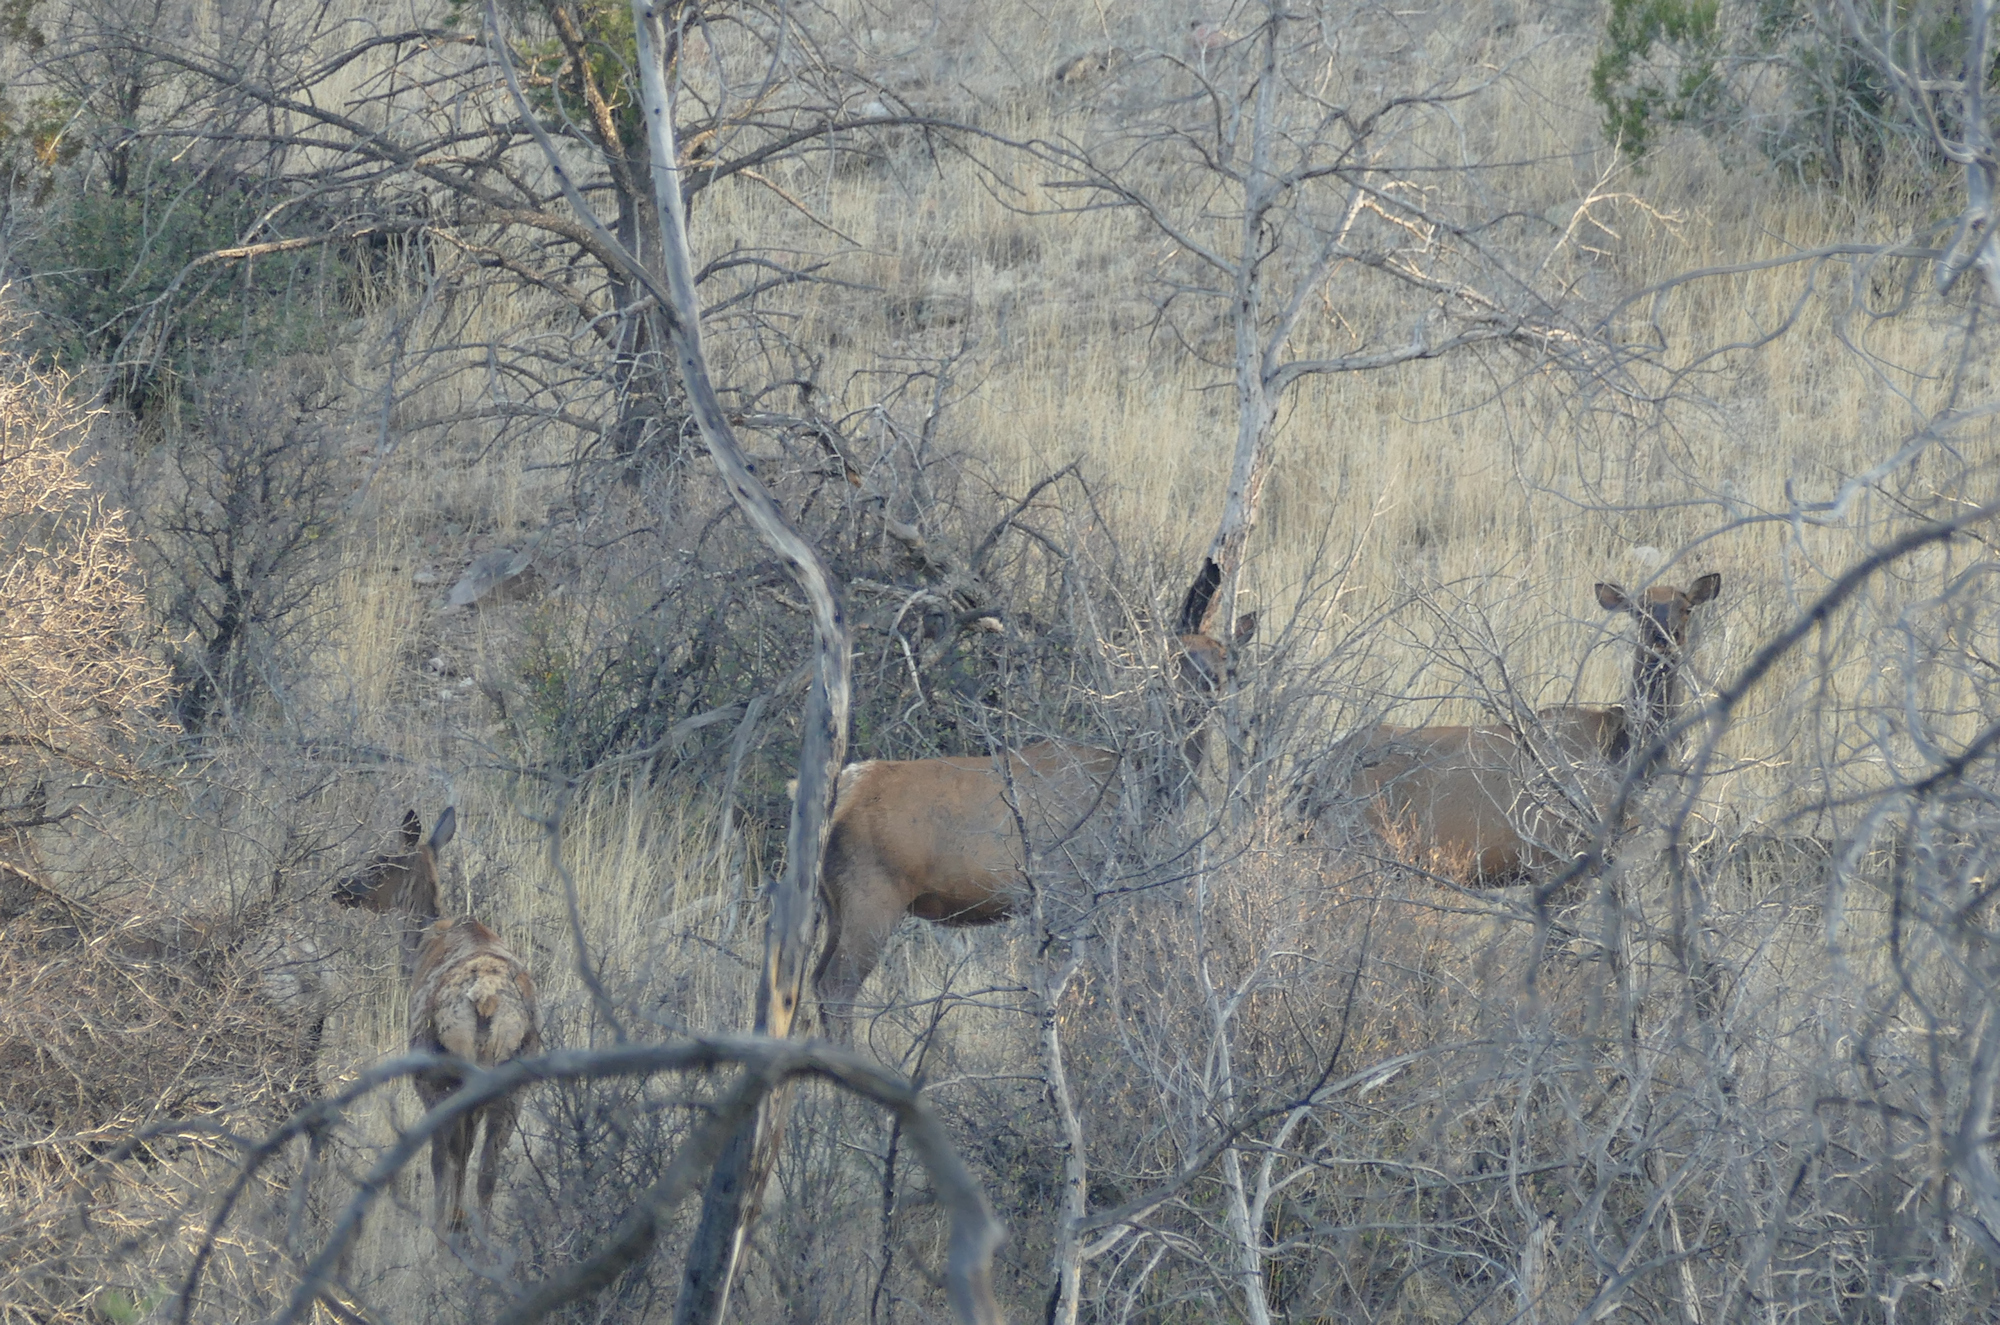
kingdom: Animalia
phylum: Chordata
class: Mammalia
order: Artiodactyla
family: Cervidae
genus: Cervus
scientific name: Cervus elaphus
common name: Red deer
